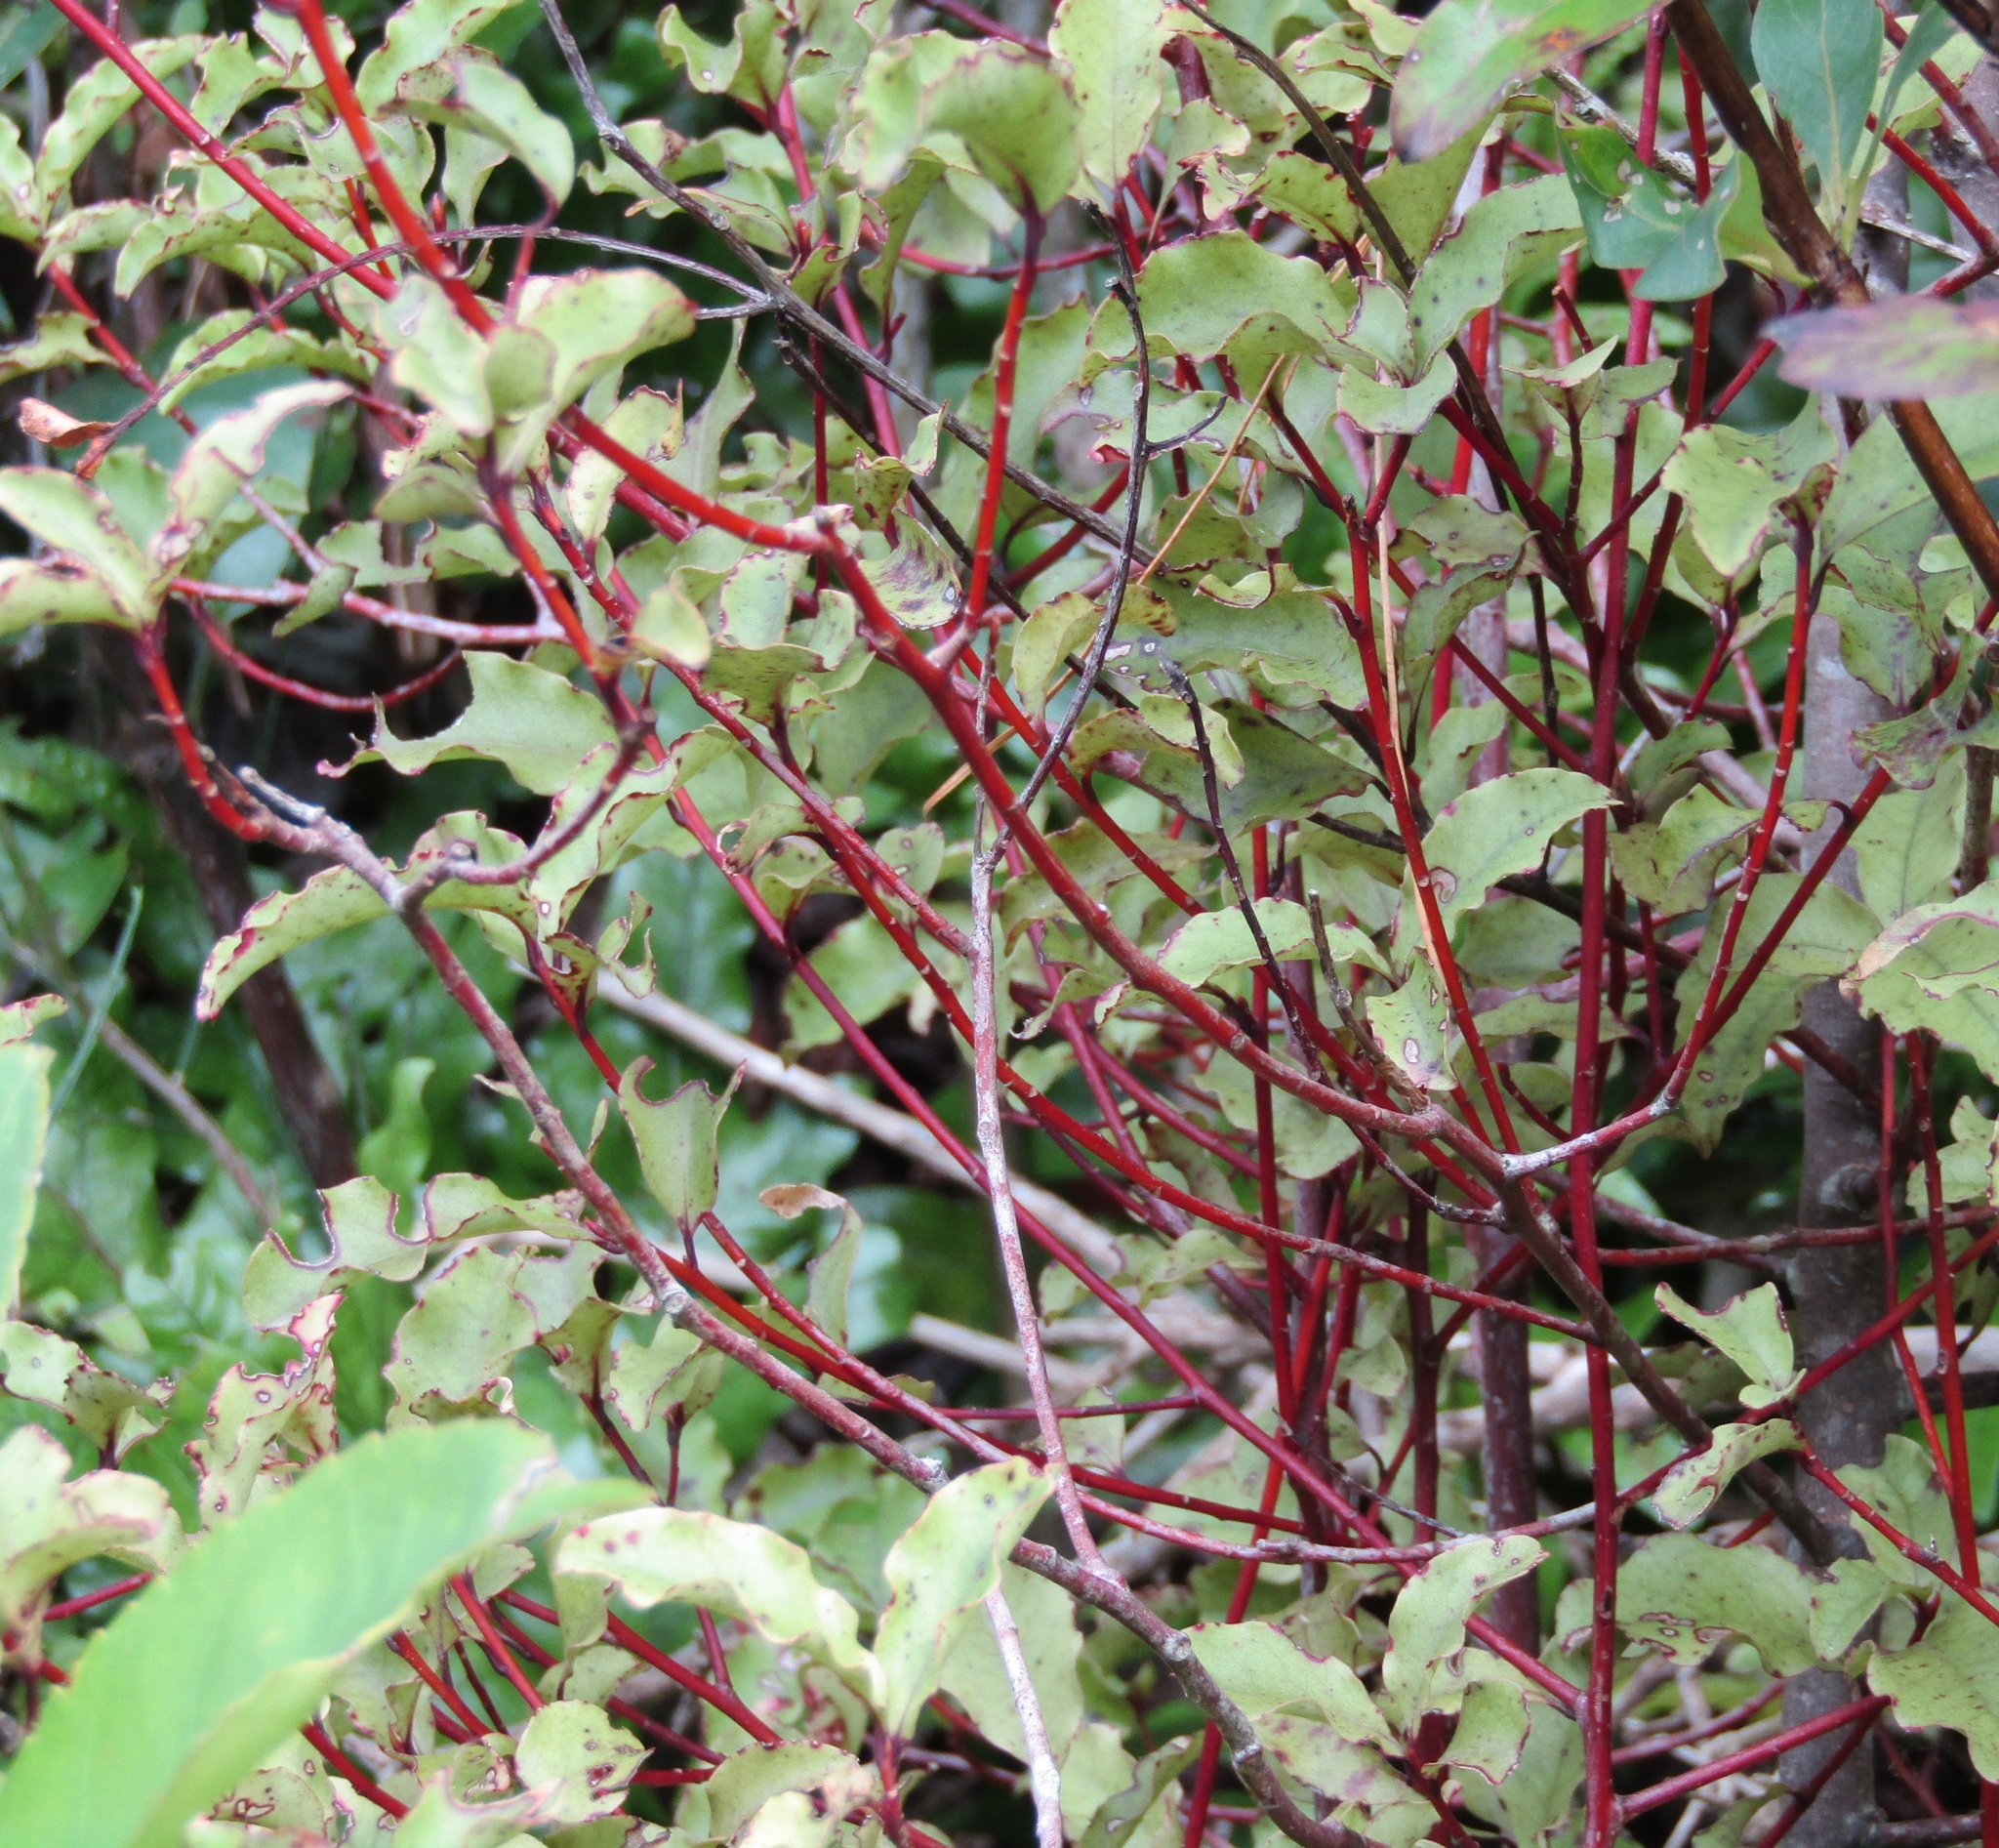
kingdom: Plantae
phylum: Tracheophyta
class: Magnoliopsida
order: Ericales
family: Primulaceae
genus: Myrsine
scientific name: Myrsine australis
